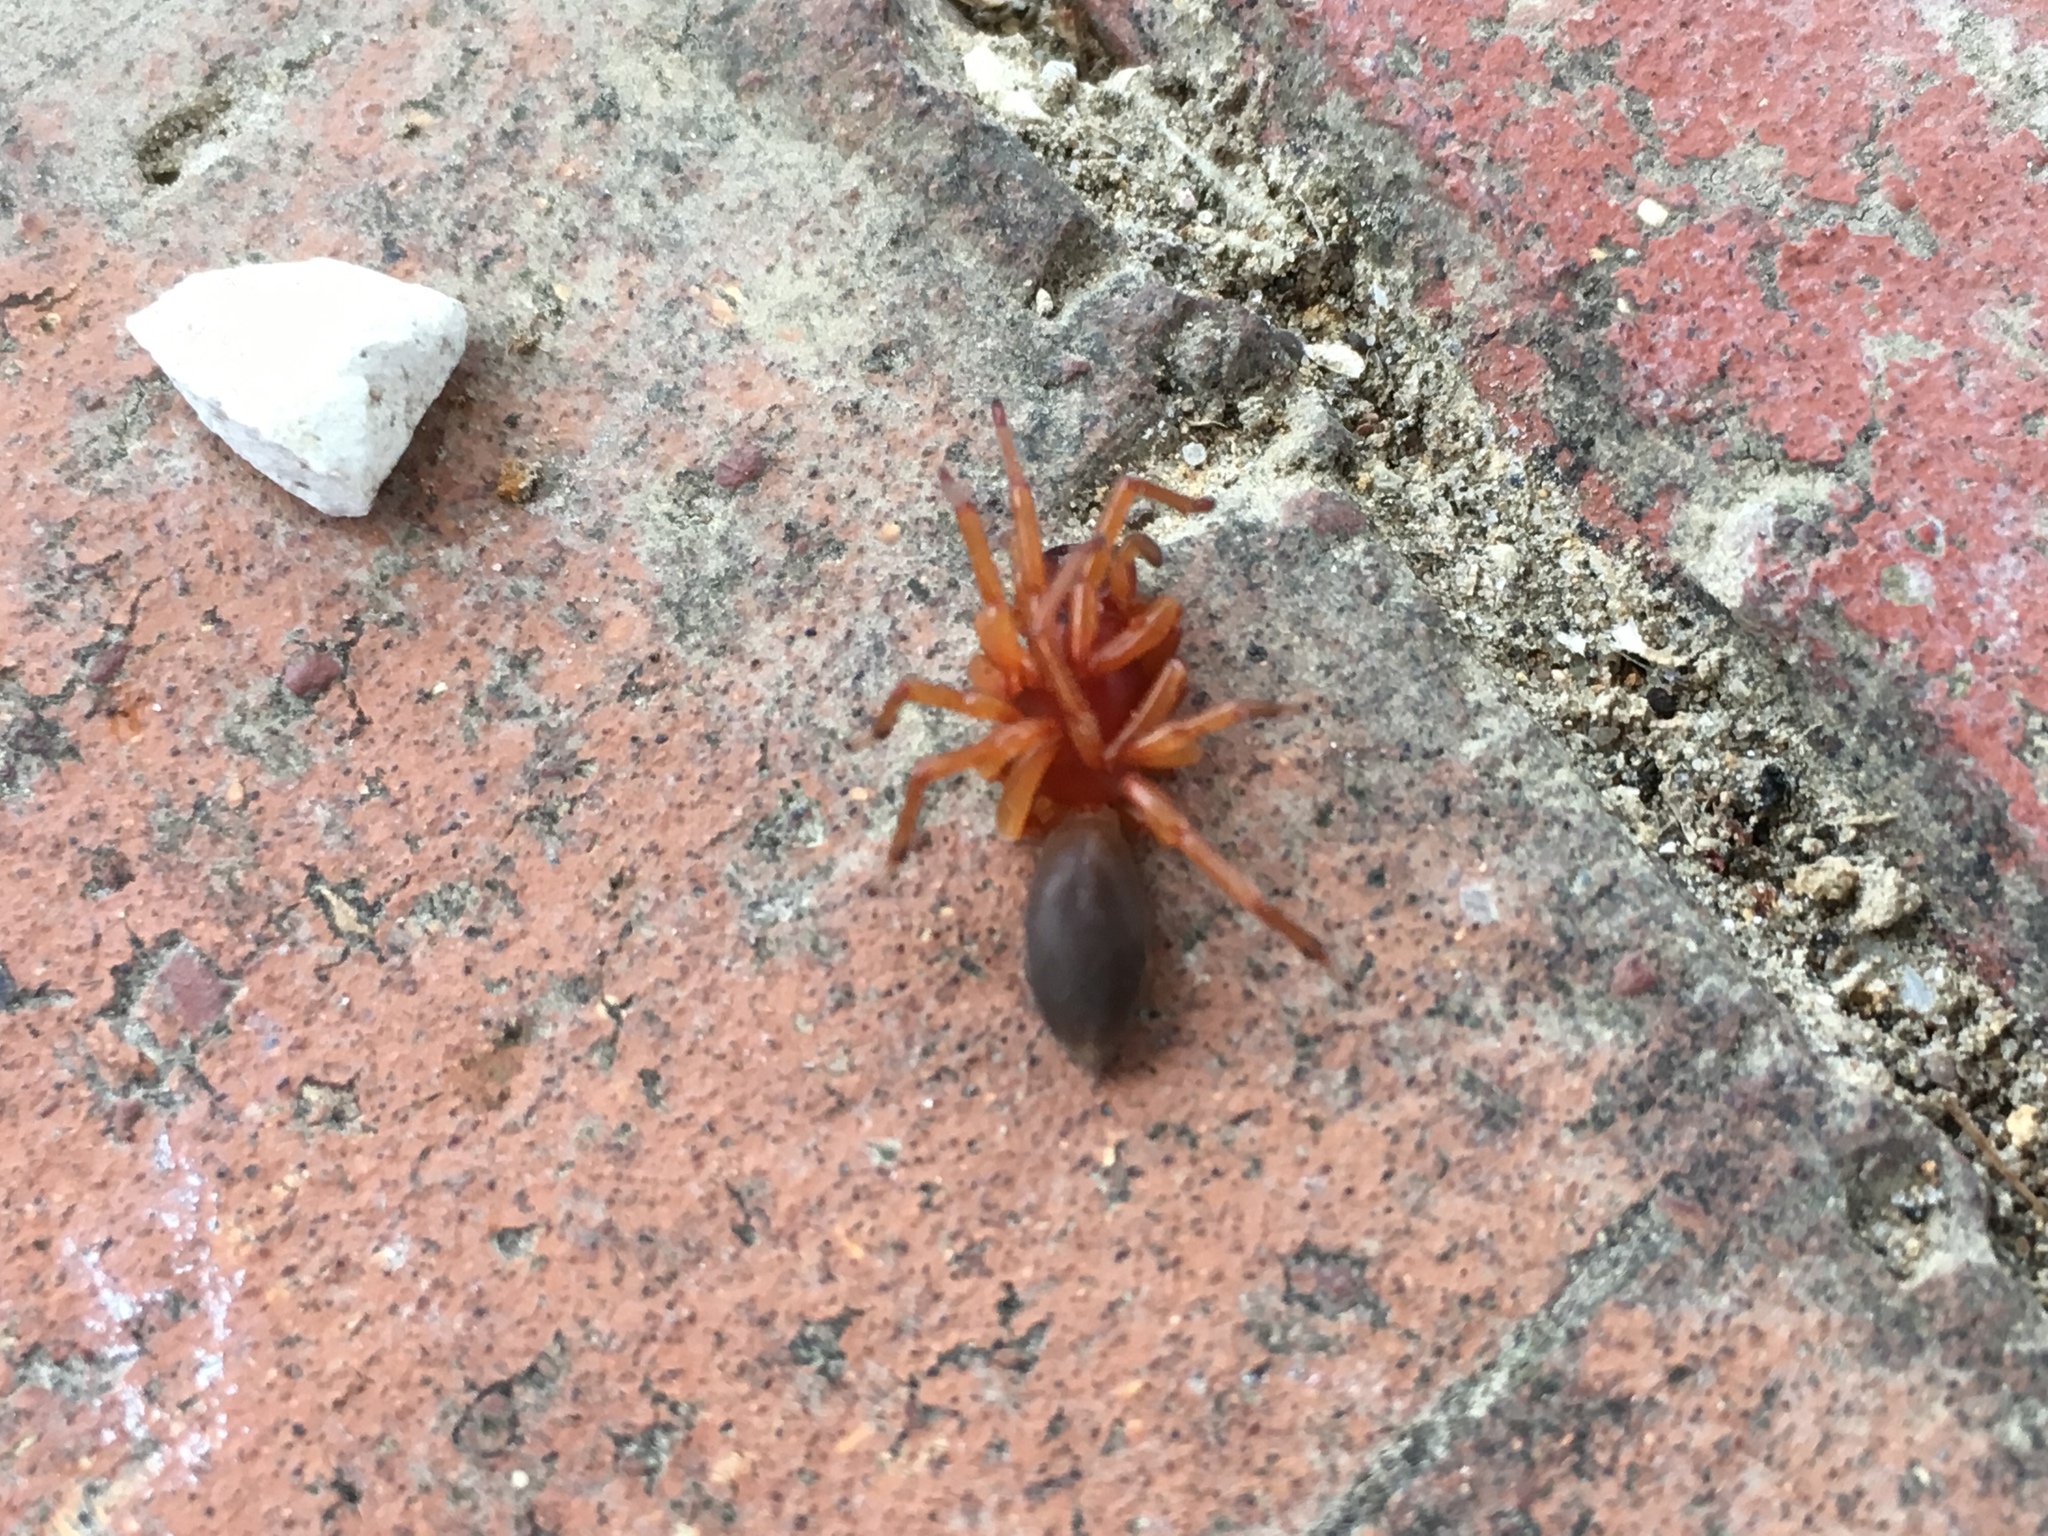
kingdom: Animalia
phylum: Arthropoda
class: Arachnida
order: Araneae
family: Dysderidae
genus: Dysdera
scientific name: Dysdera crocata
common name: Woodlouse spider
